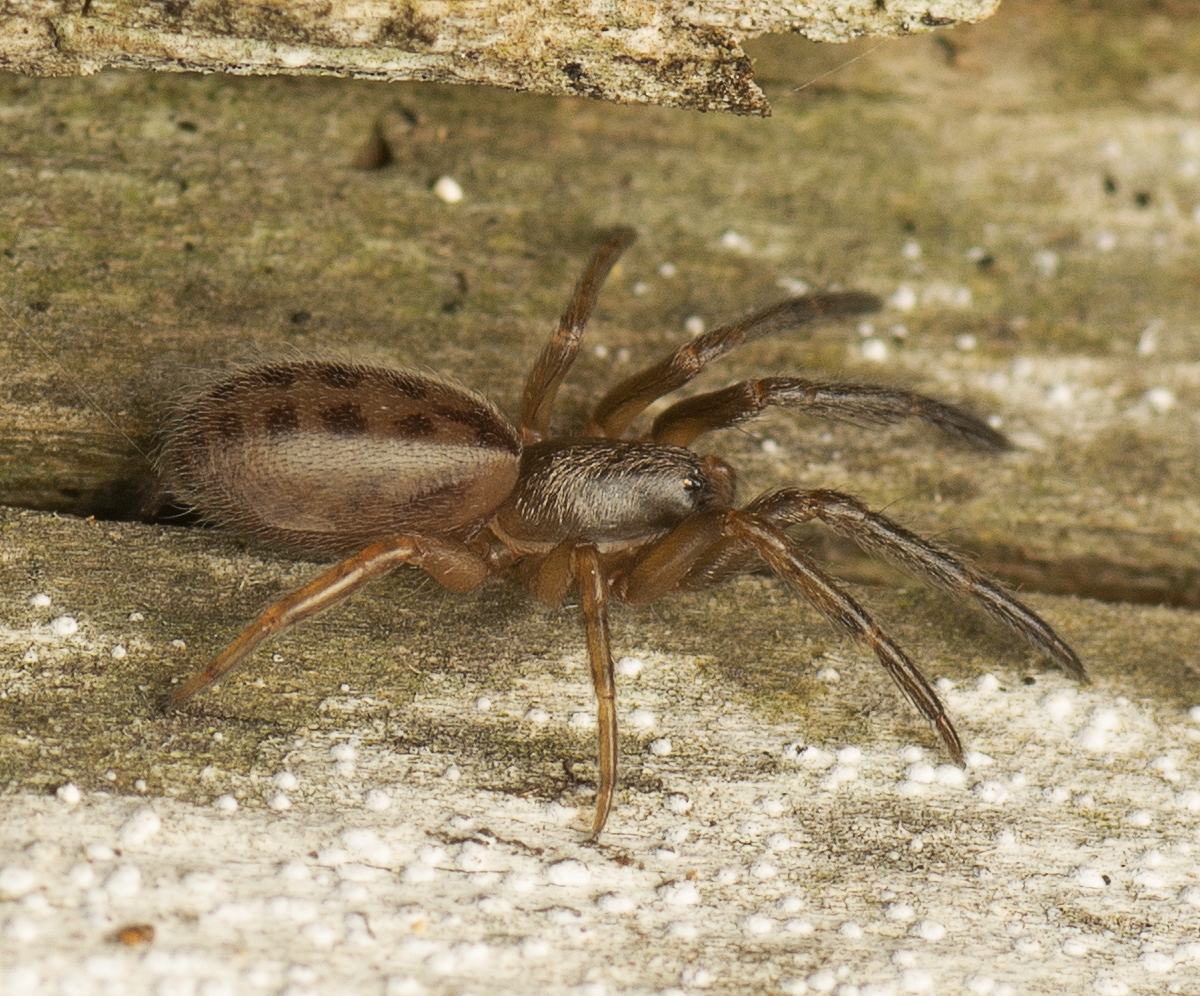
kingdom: Animalia
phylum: Arthropoda
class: Arachnida
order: Araneae
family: Segestriidae
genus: Gippsicola
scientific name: Gippsicola robusta
